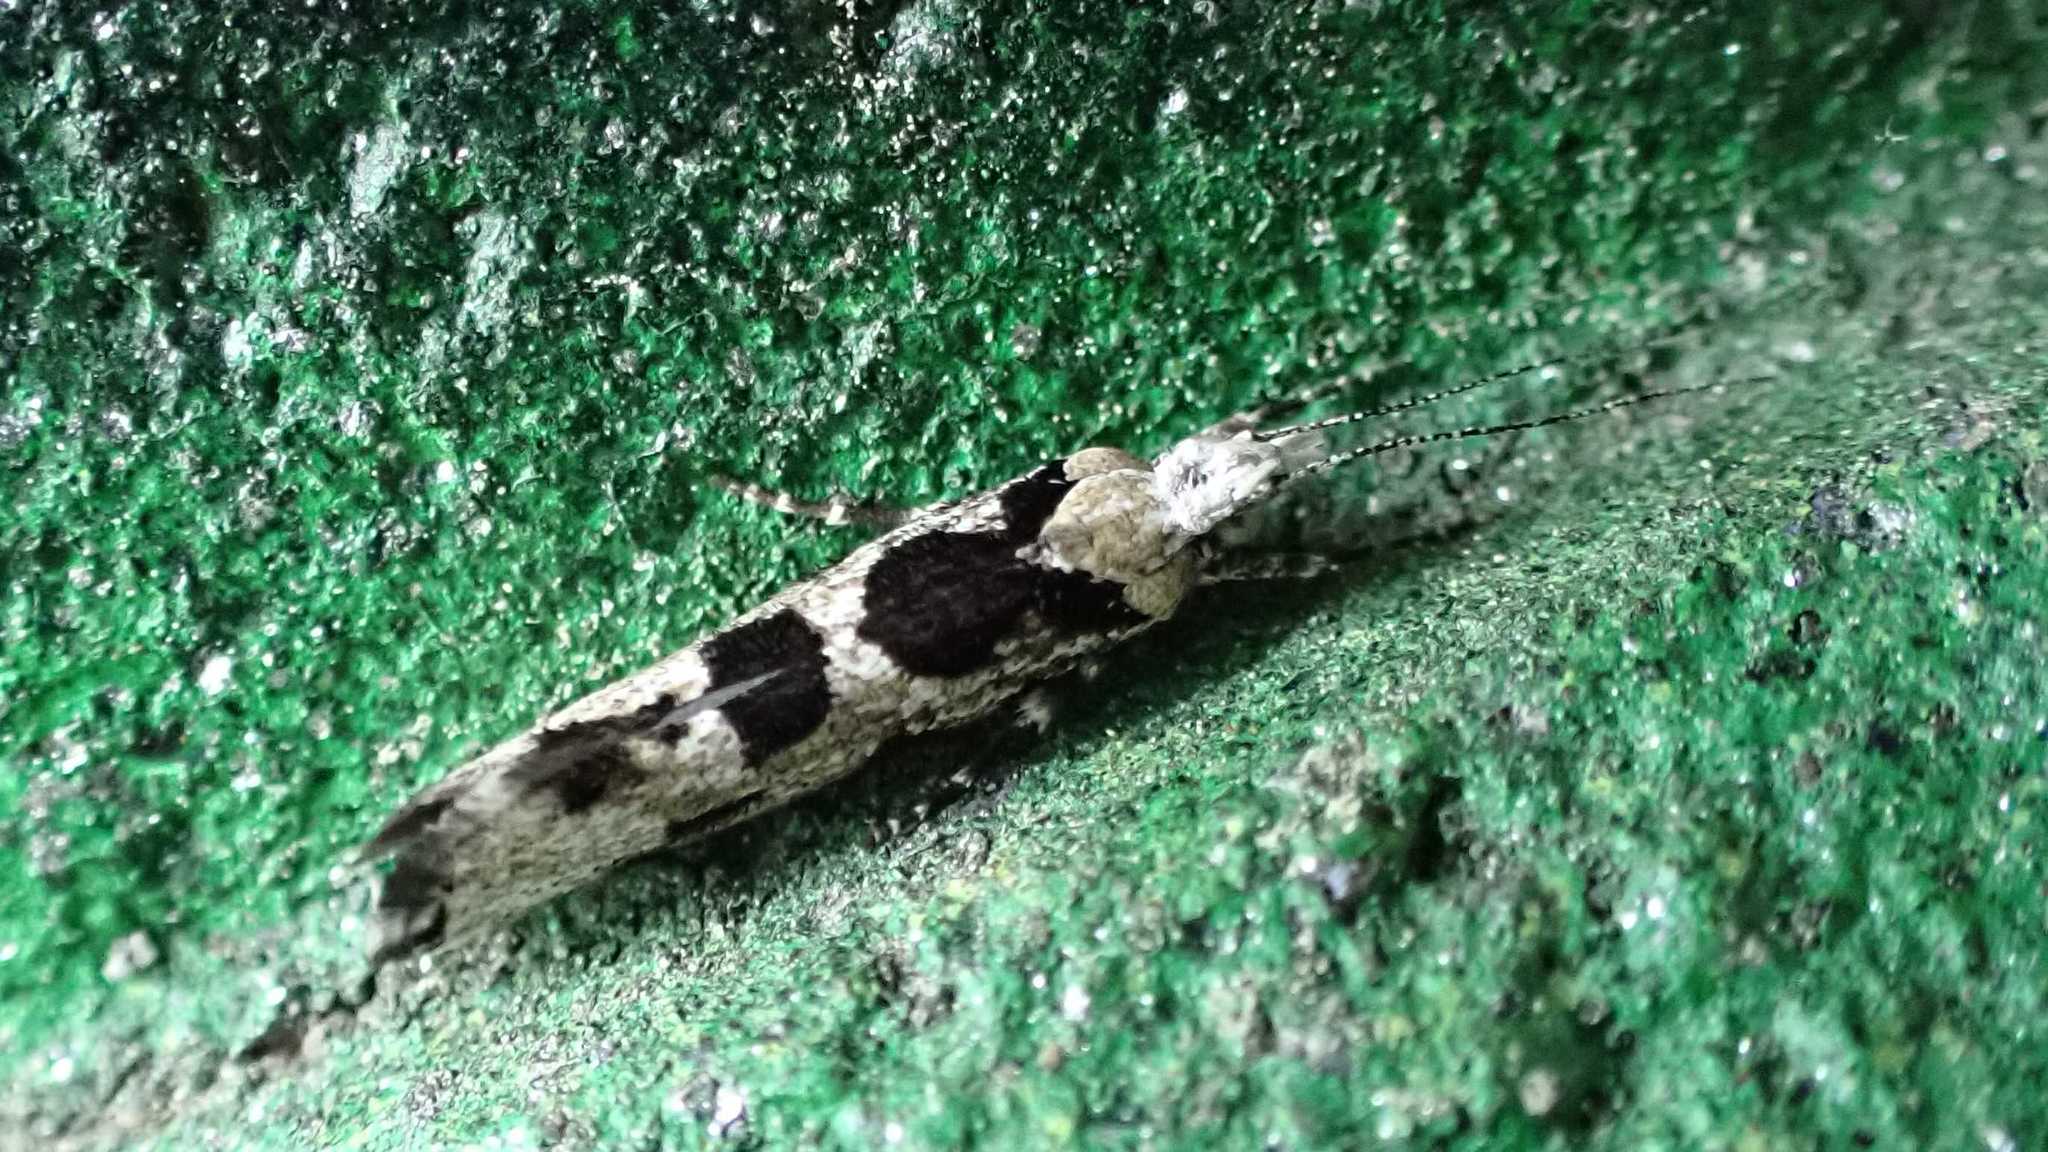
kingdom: Animalia
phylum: Arthropoda
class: Insecta
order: Lepidoptera
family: Plutellidae
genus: Ypsolophus
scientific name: Ypsolophus sequella
